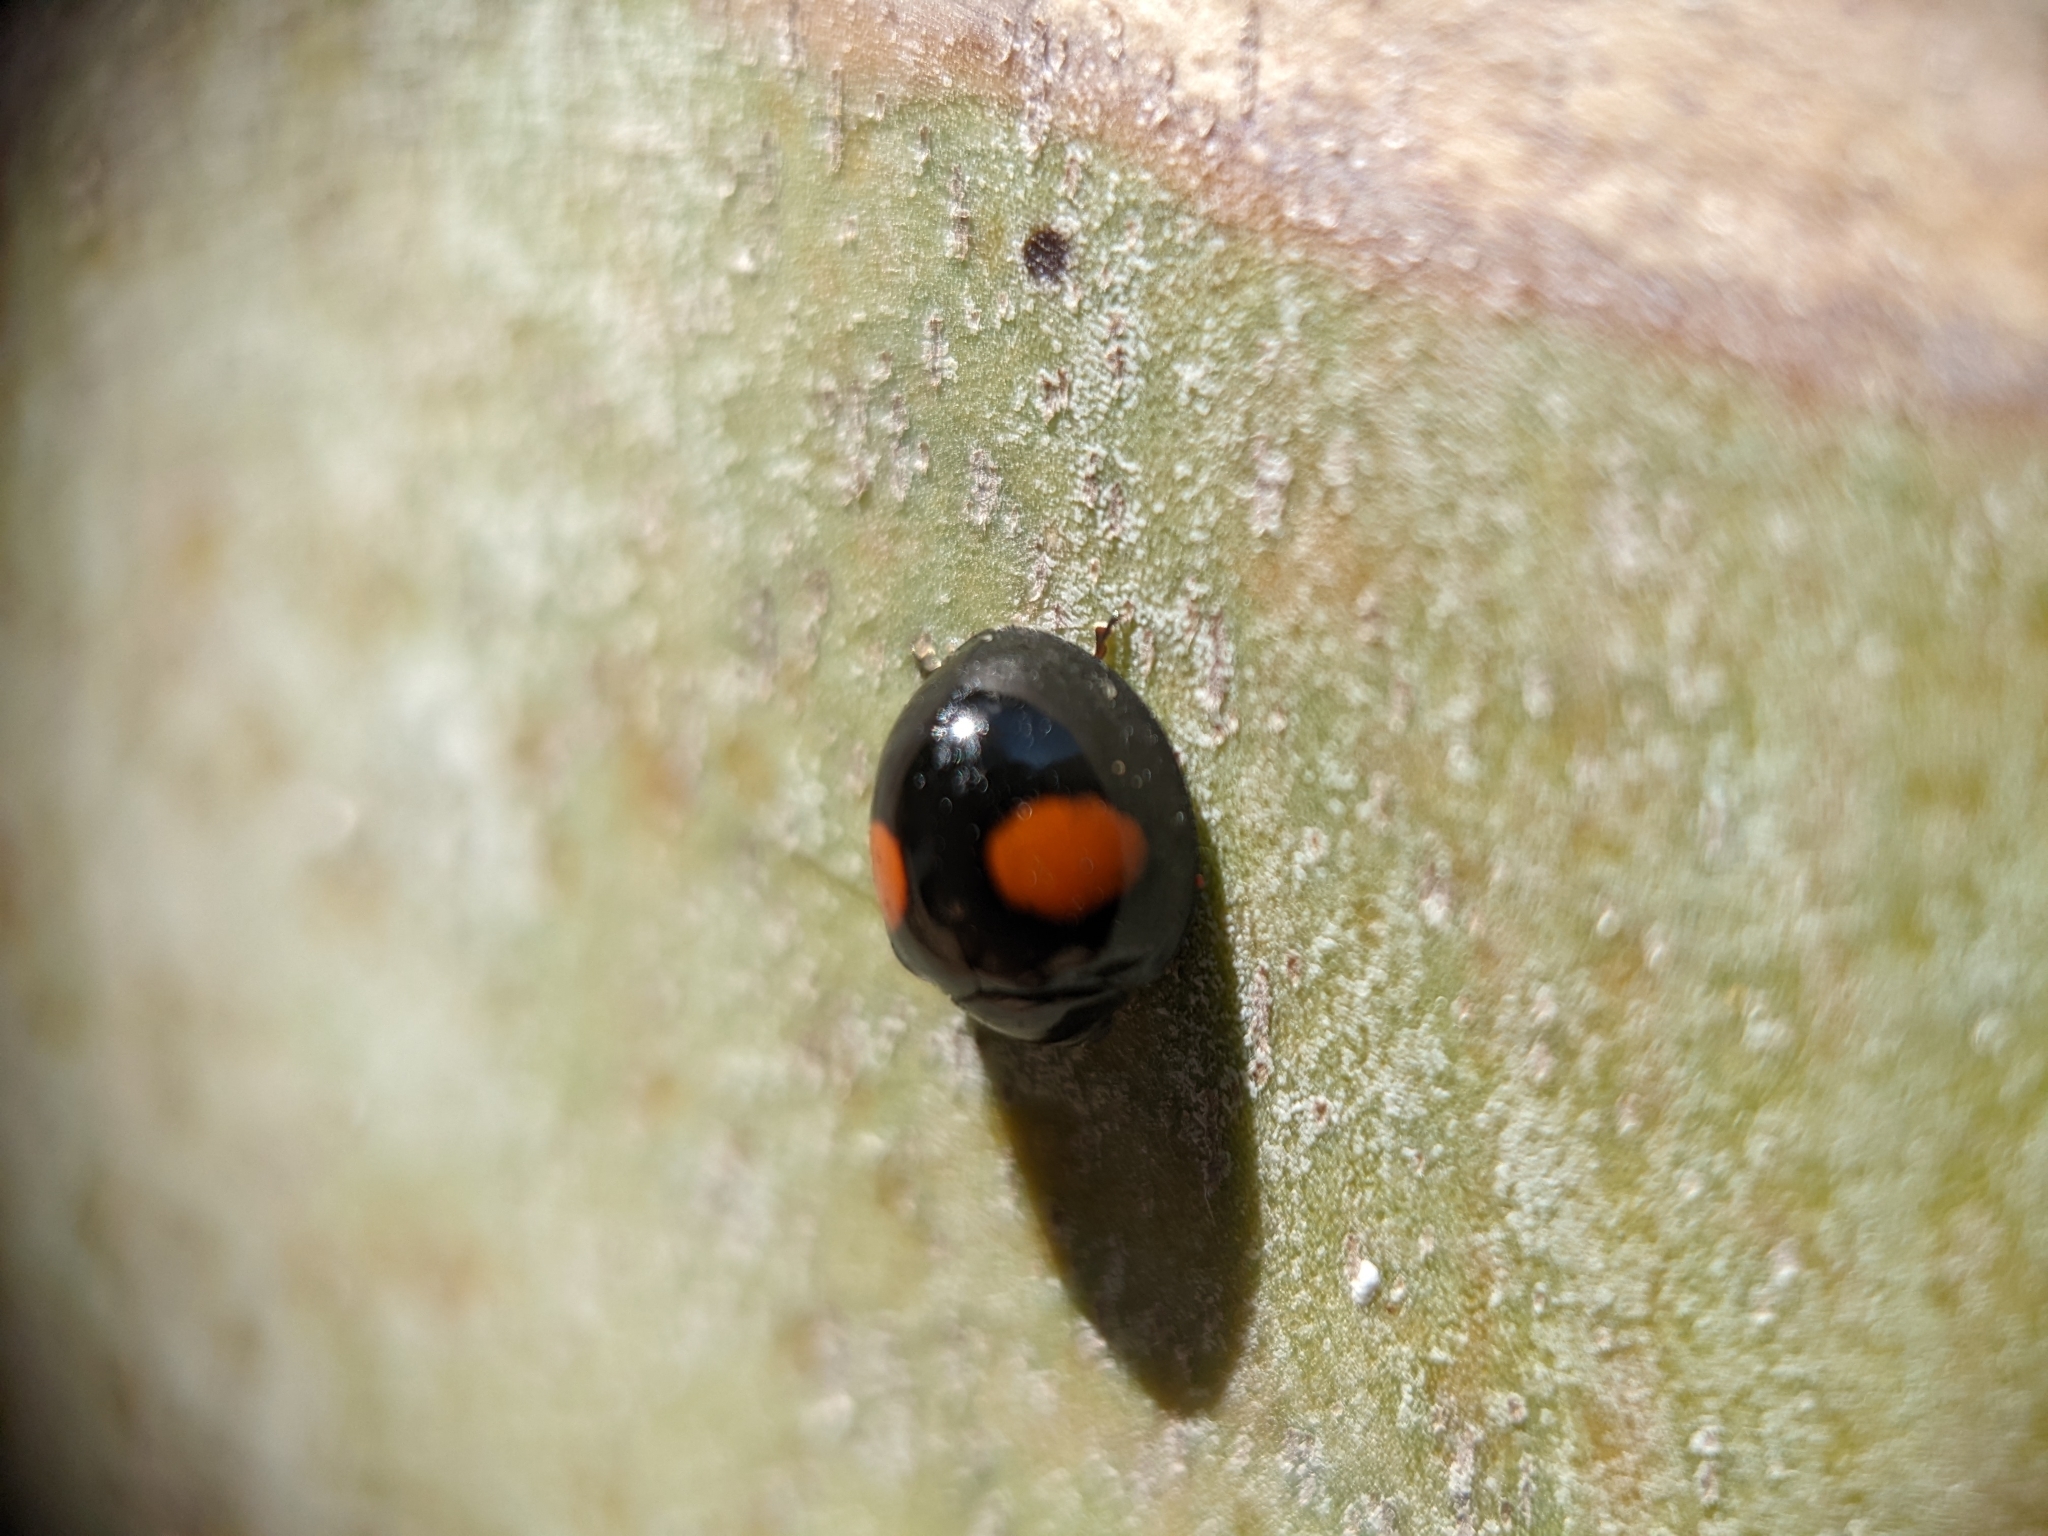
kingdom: Animalia
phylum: Arthropoda
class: Insecta
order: Coleoptera
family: Coccinellidae
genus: Chilocorus
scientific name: Chilocorus cacti
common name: Cactus lady beetle
